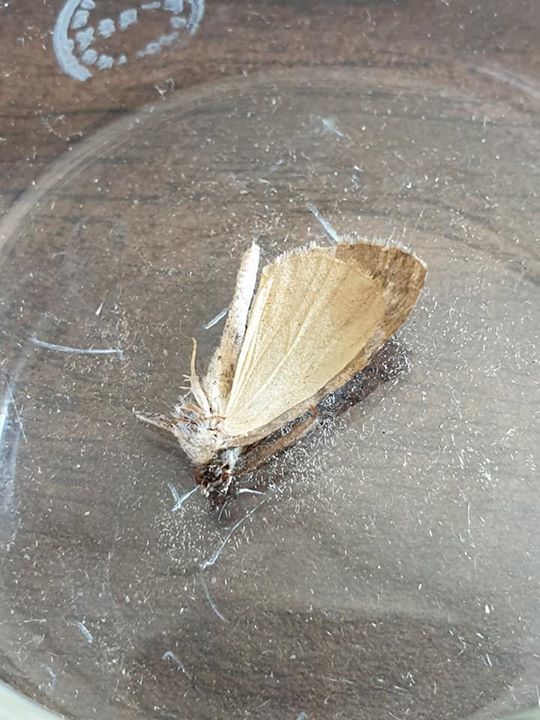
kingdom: Animalia
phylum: Arthropoda
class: Insecta
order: Lepidoptera
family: Geometridae
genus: Pseudocoremia
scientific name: Pseudocoremia suavis
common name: Common forest looper
